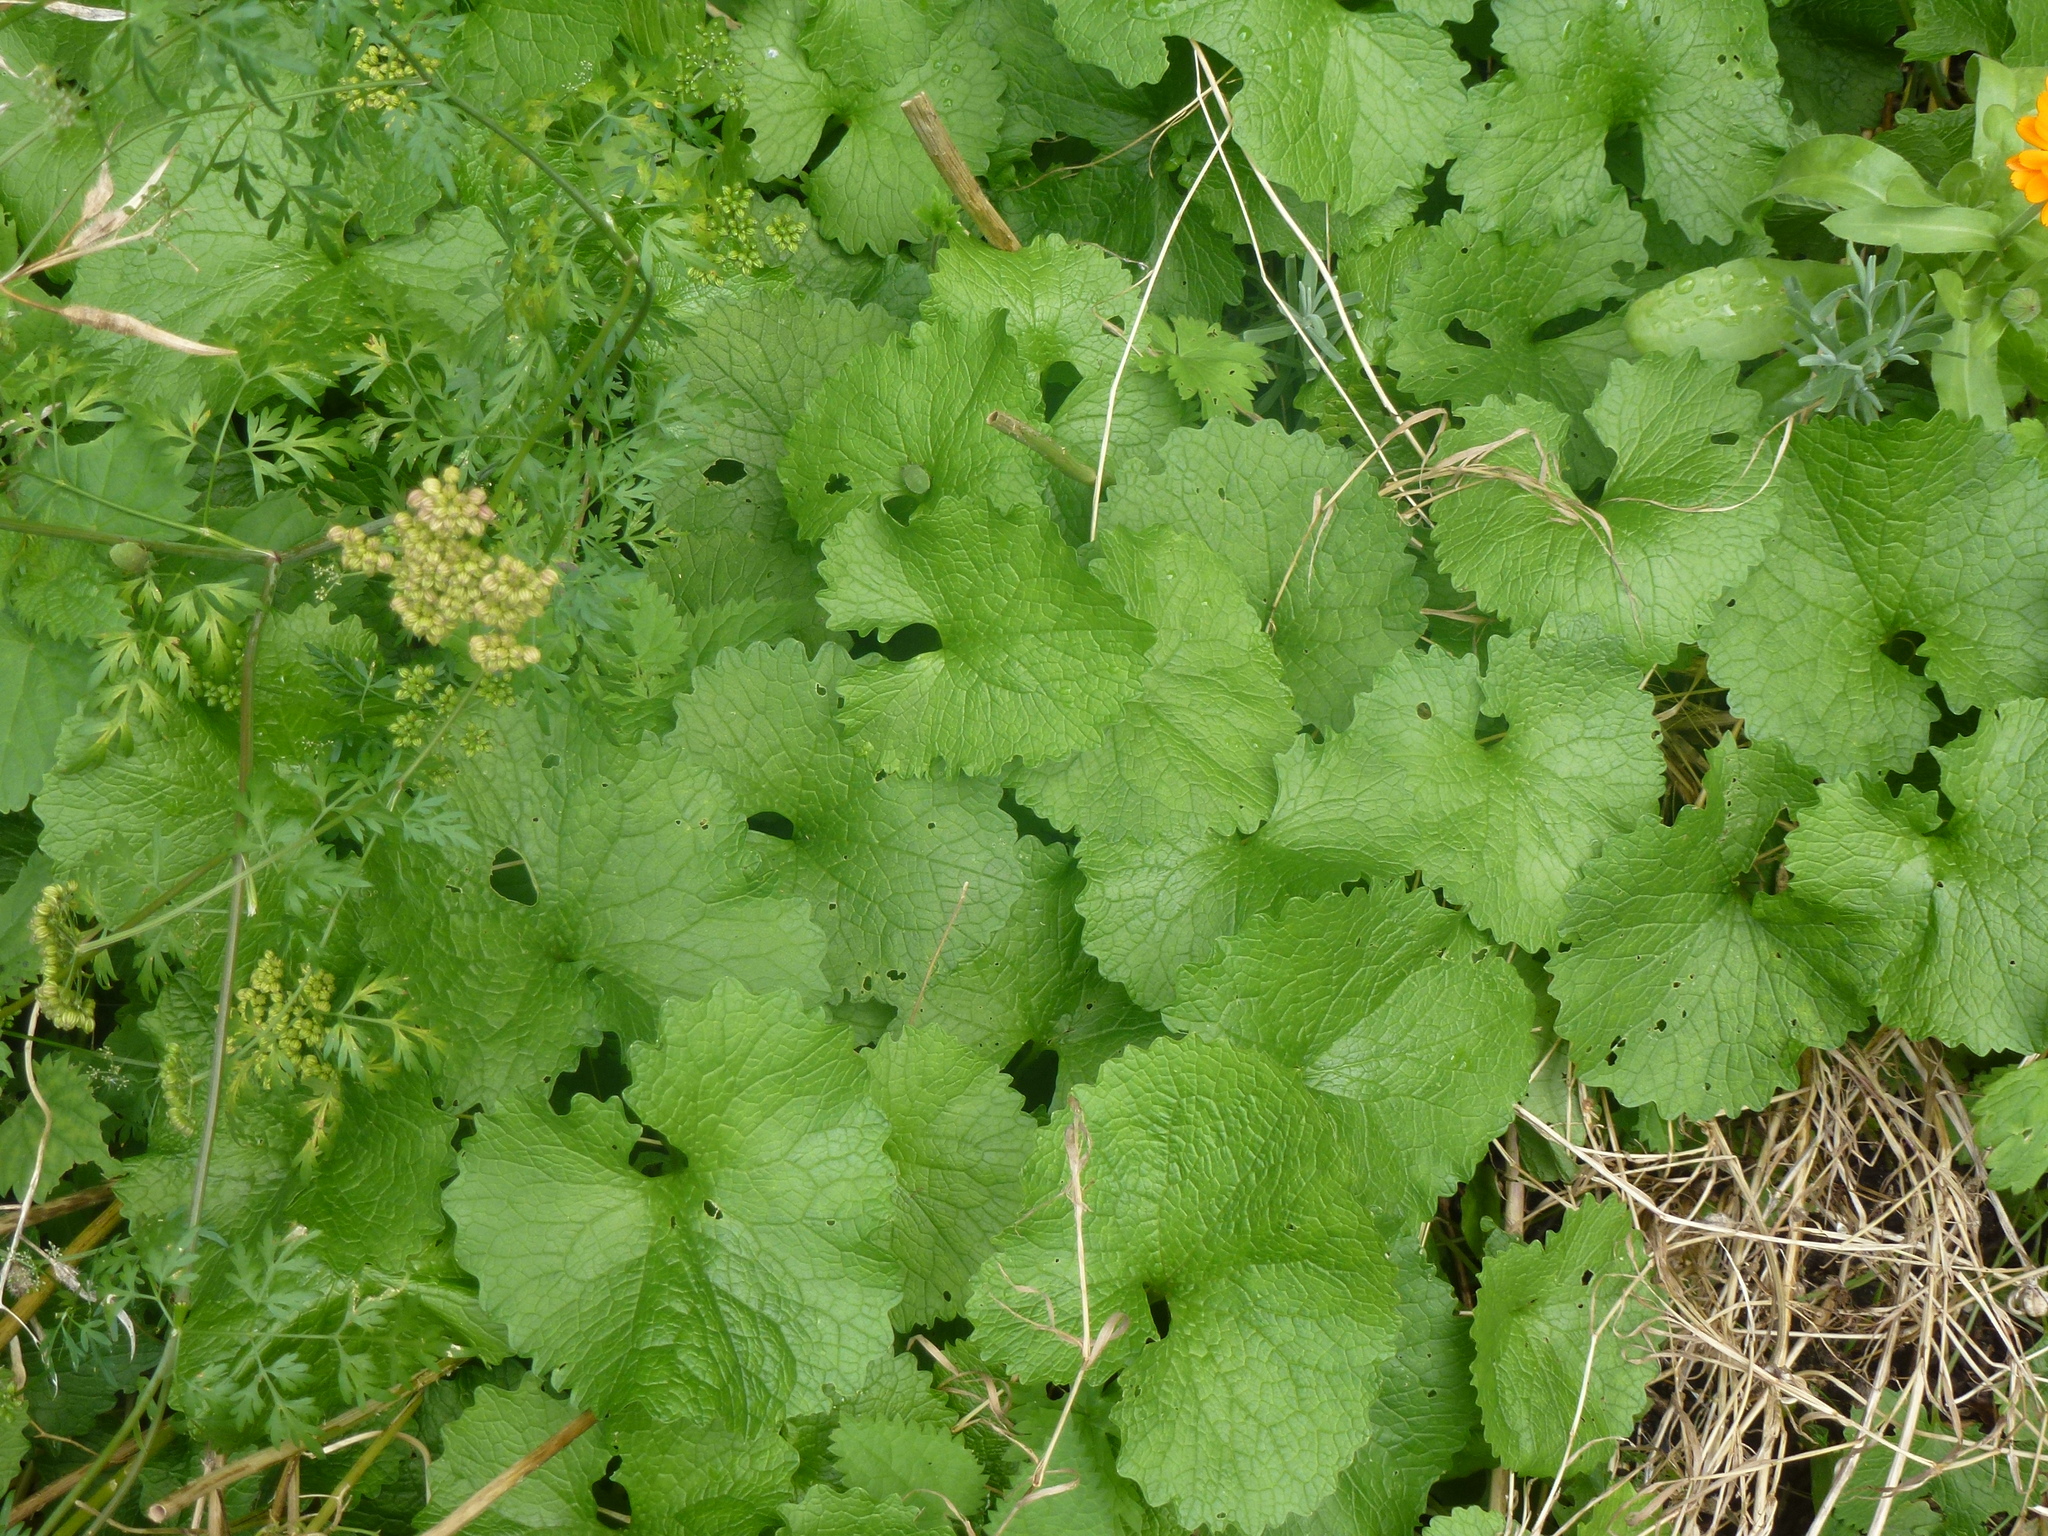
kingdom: Plantae
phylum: Tracheophyta
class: Magnoliopsida
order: Brassicales
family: Brassicaceae
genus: Alliaria
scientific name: Alliaria petiolata
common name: Garlic mustard
